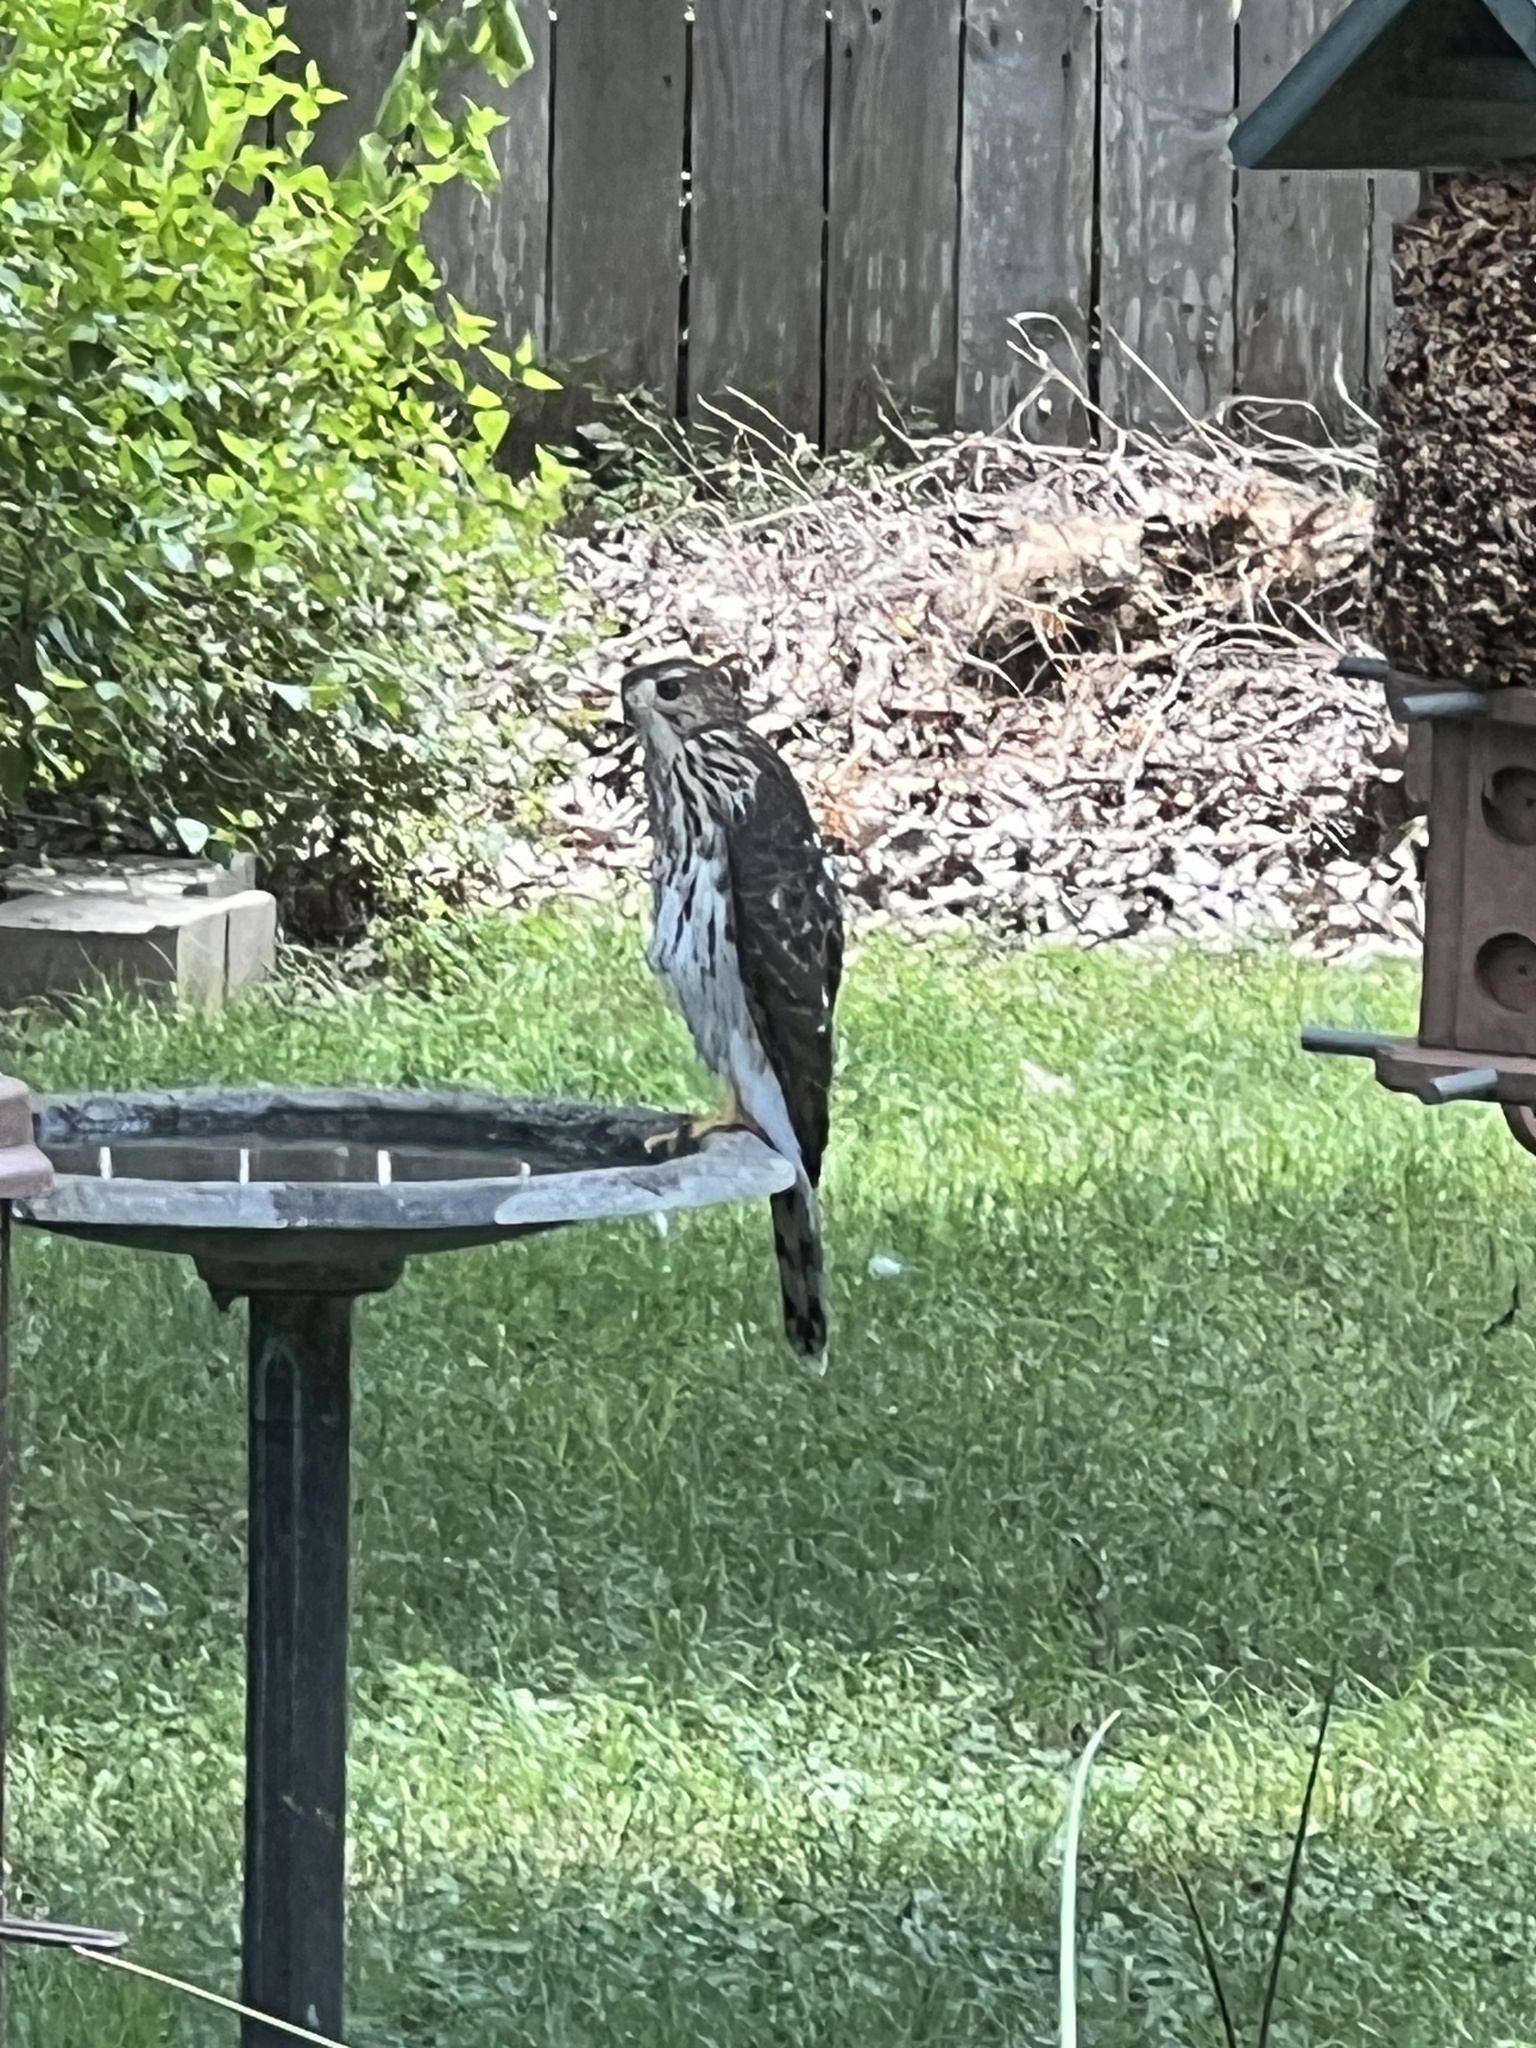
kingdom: Animalia
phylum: Chordata
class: Aves
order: Accipitriformes
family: Accipitridae
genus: Accipiter
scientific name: Accipiter cooperii
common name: Cooper's hawk
